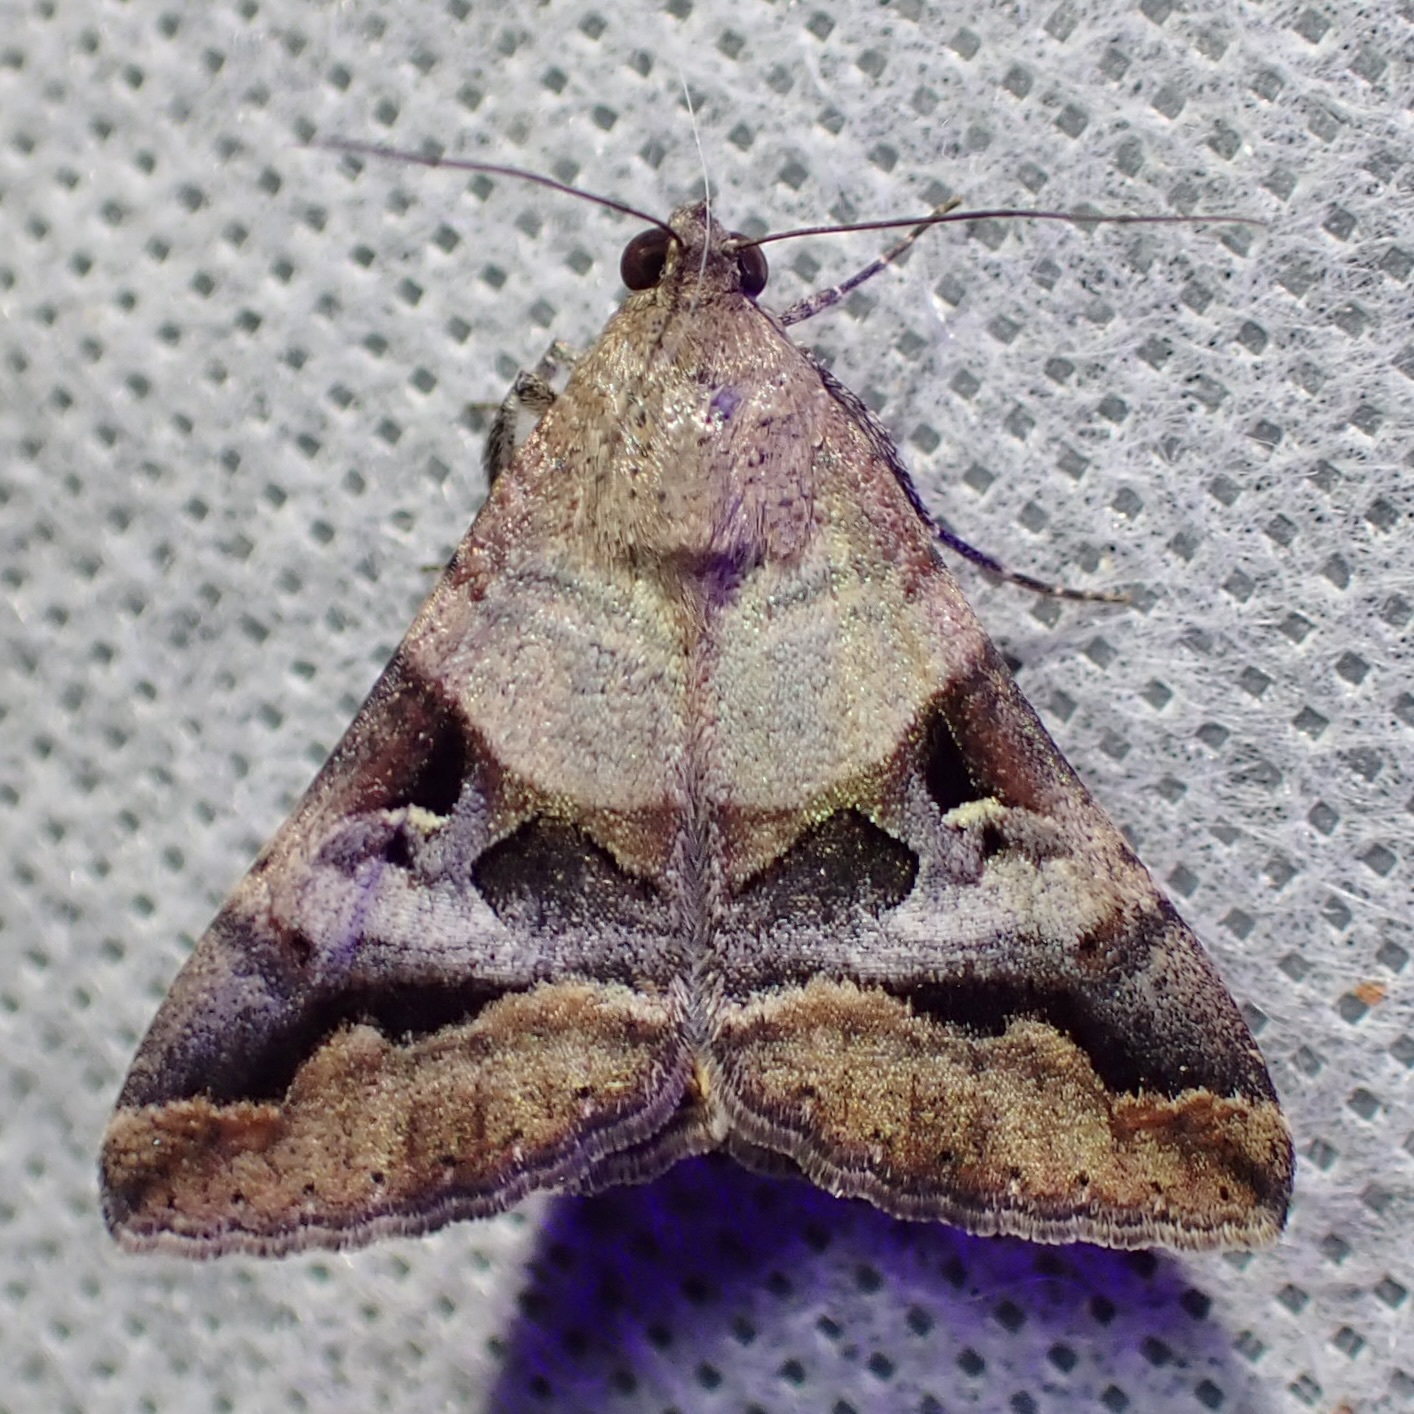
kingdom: Animalia
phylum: Arthropoda
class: Insecta
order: Lepidoptera
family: Erebidae
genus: Melipotis
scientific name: Melipotis perpendicularis
